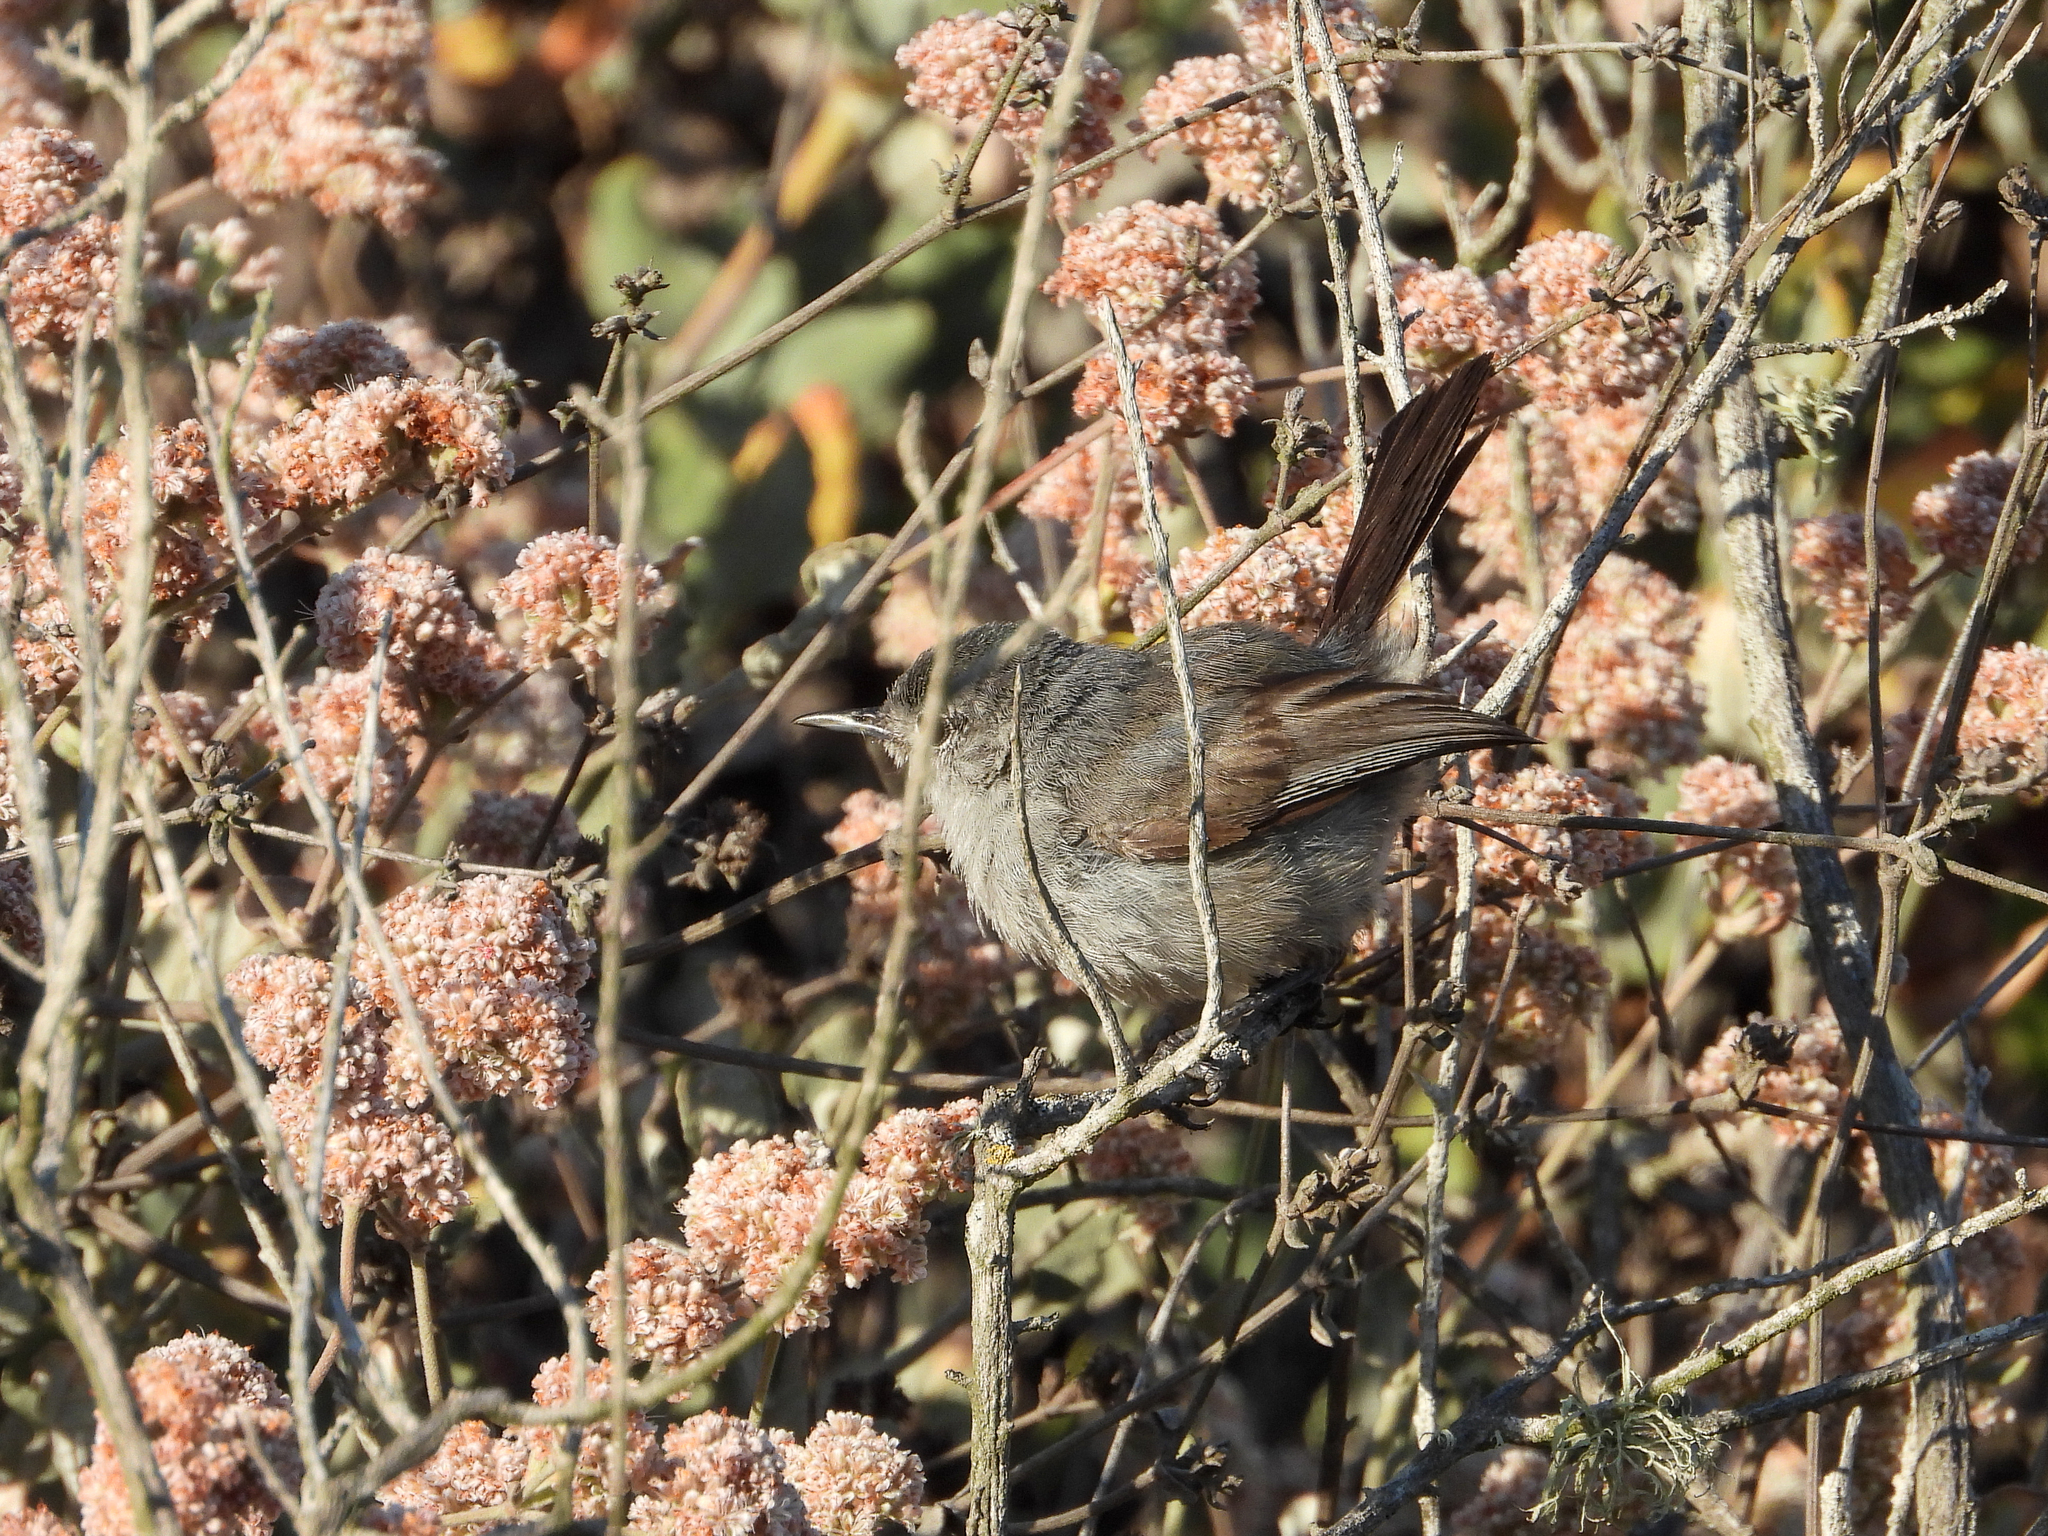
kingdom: Animalia
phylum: Chordata
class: Aves
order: Passeriformes
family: Polioptilidae
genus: Polioptila
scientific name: Polioptila californica
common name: California gnatcatcher
